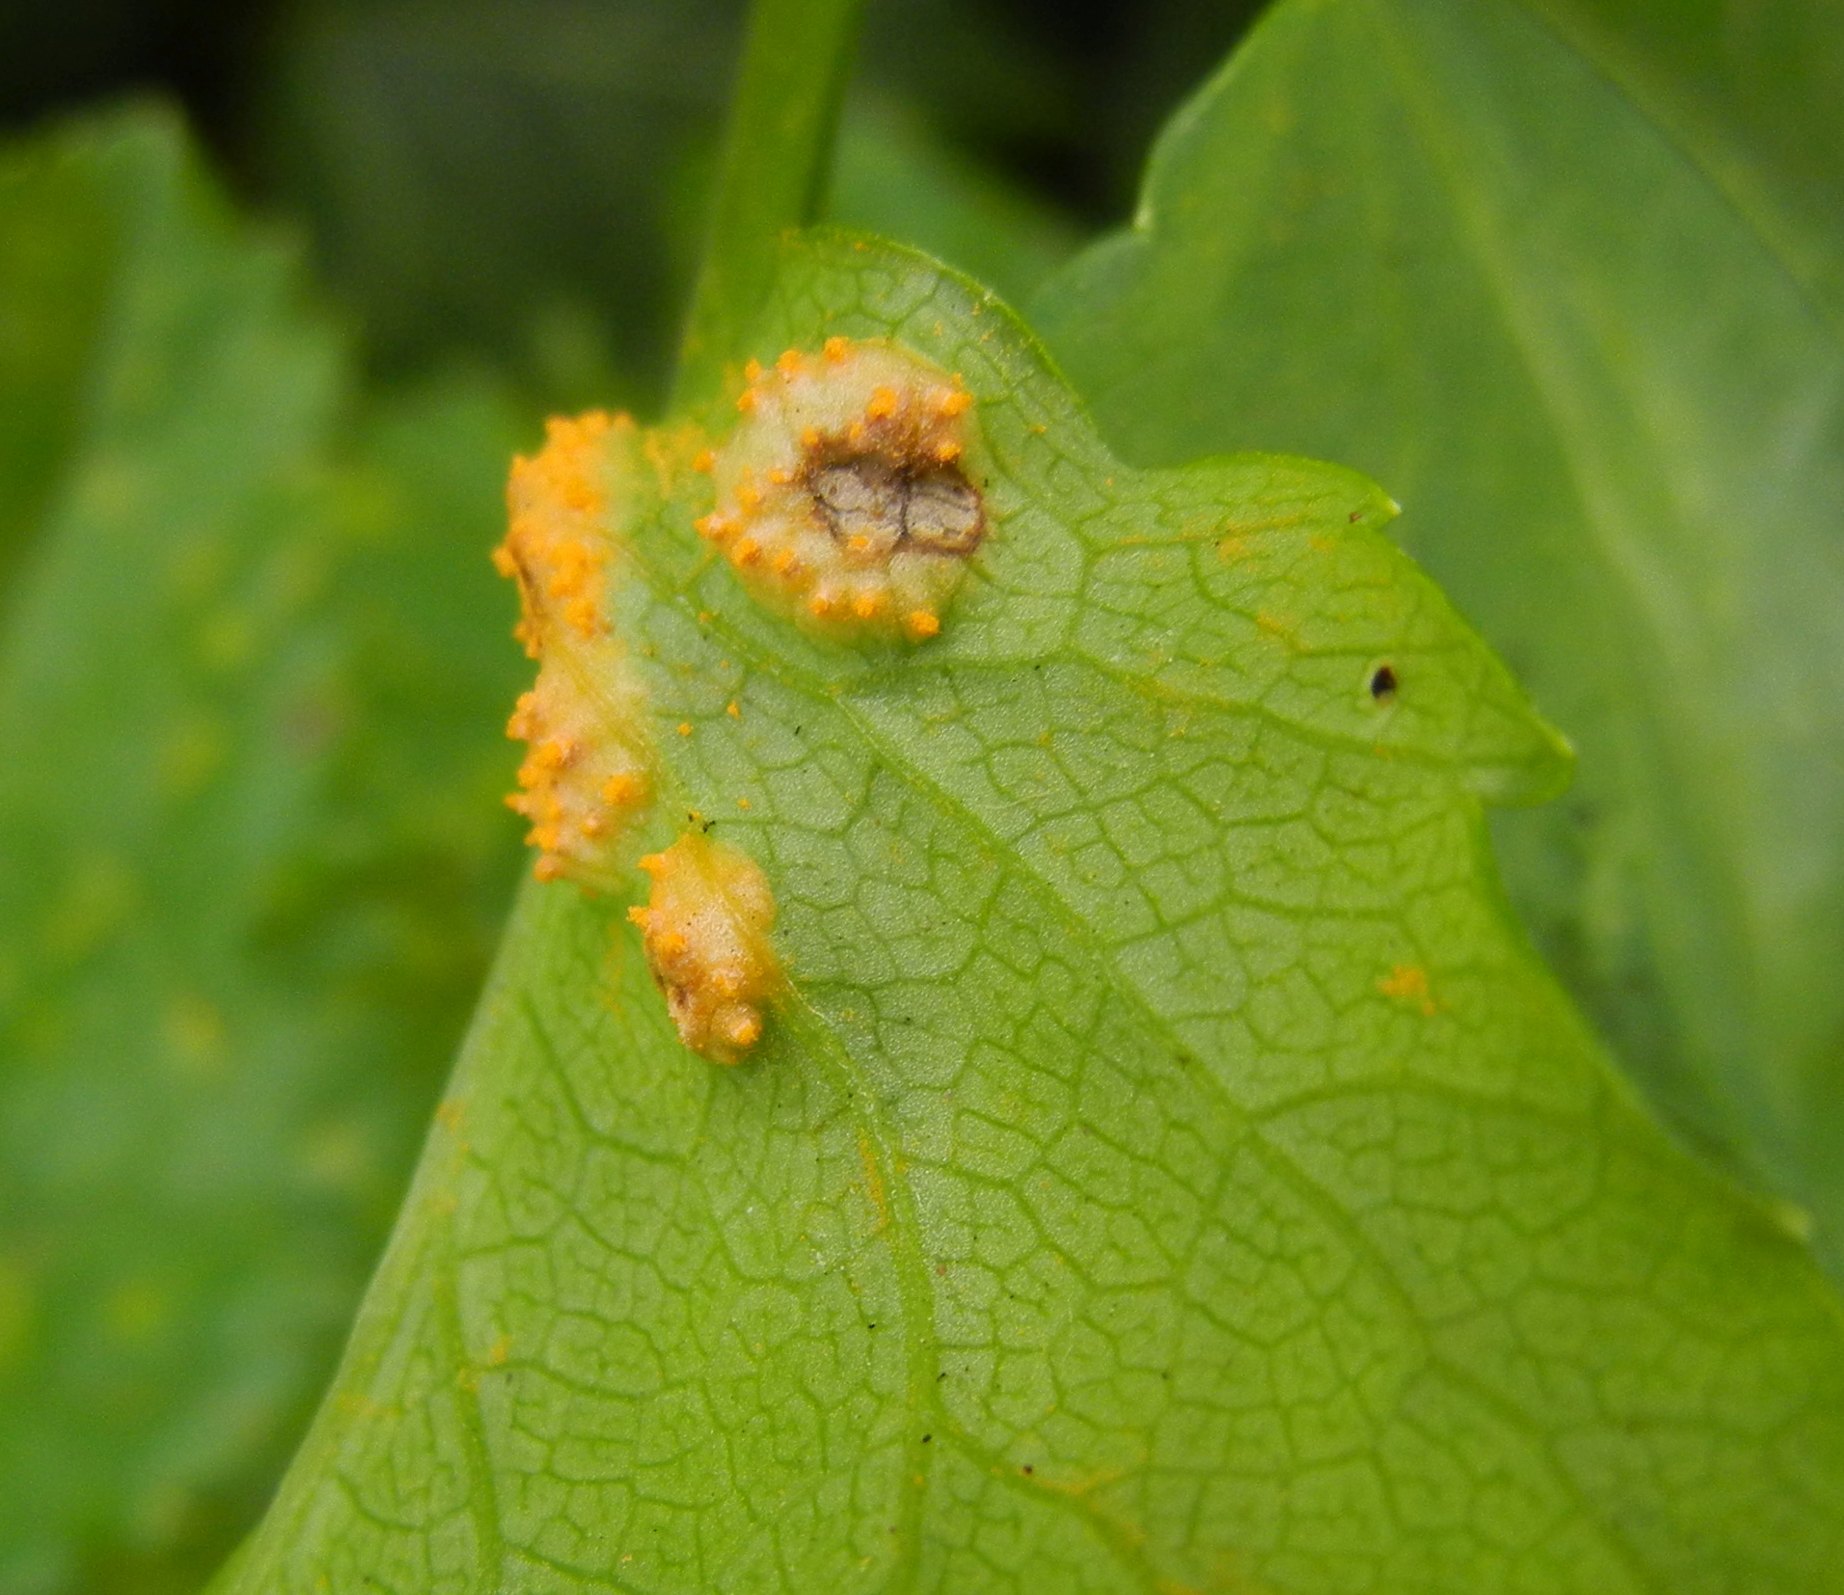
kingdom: Fungi
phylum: Basidiomycota
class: Pucciniomycetes
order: Pucciniales
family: Pucciniaceae
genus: Puccinia
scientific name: Puccinia smyrnii
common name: Alexanders rust
